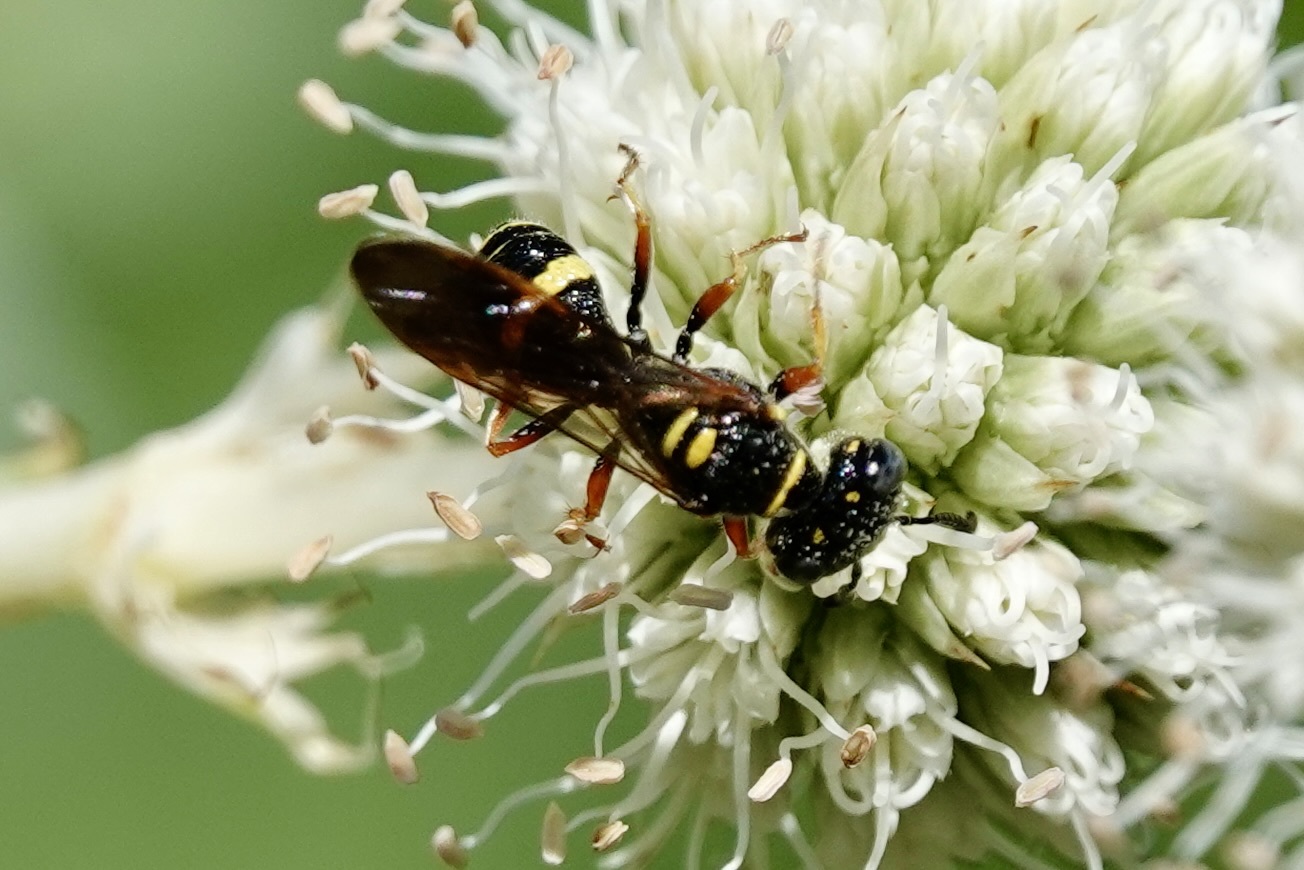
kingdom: Animalia
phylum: Arthropoda
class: Insecta
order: Hymenoptera
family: Crabronidae
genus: Philanthus
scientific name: Philanthus gibbosus
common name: Humped beewolf
